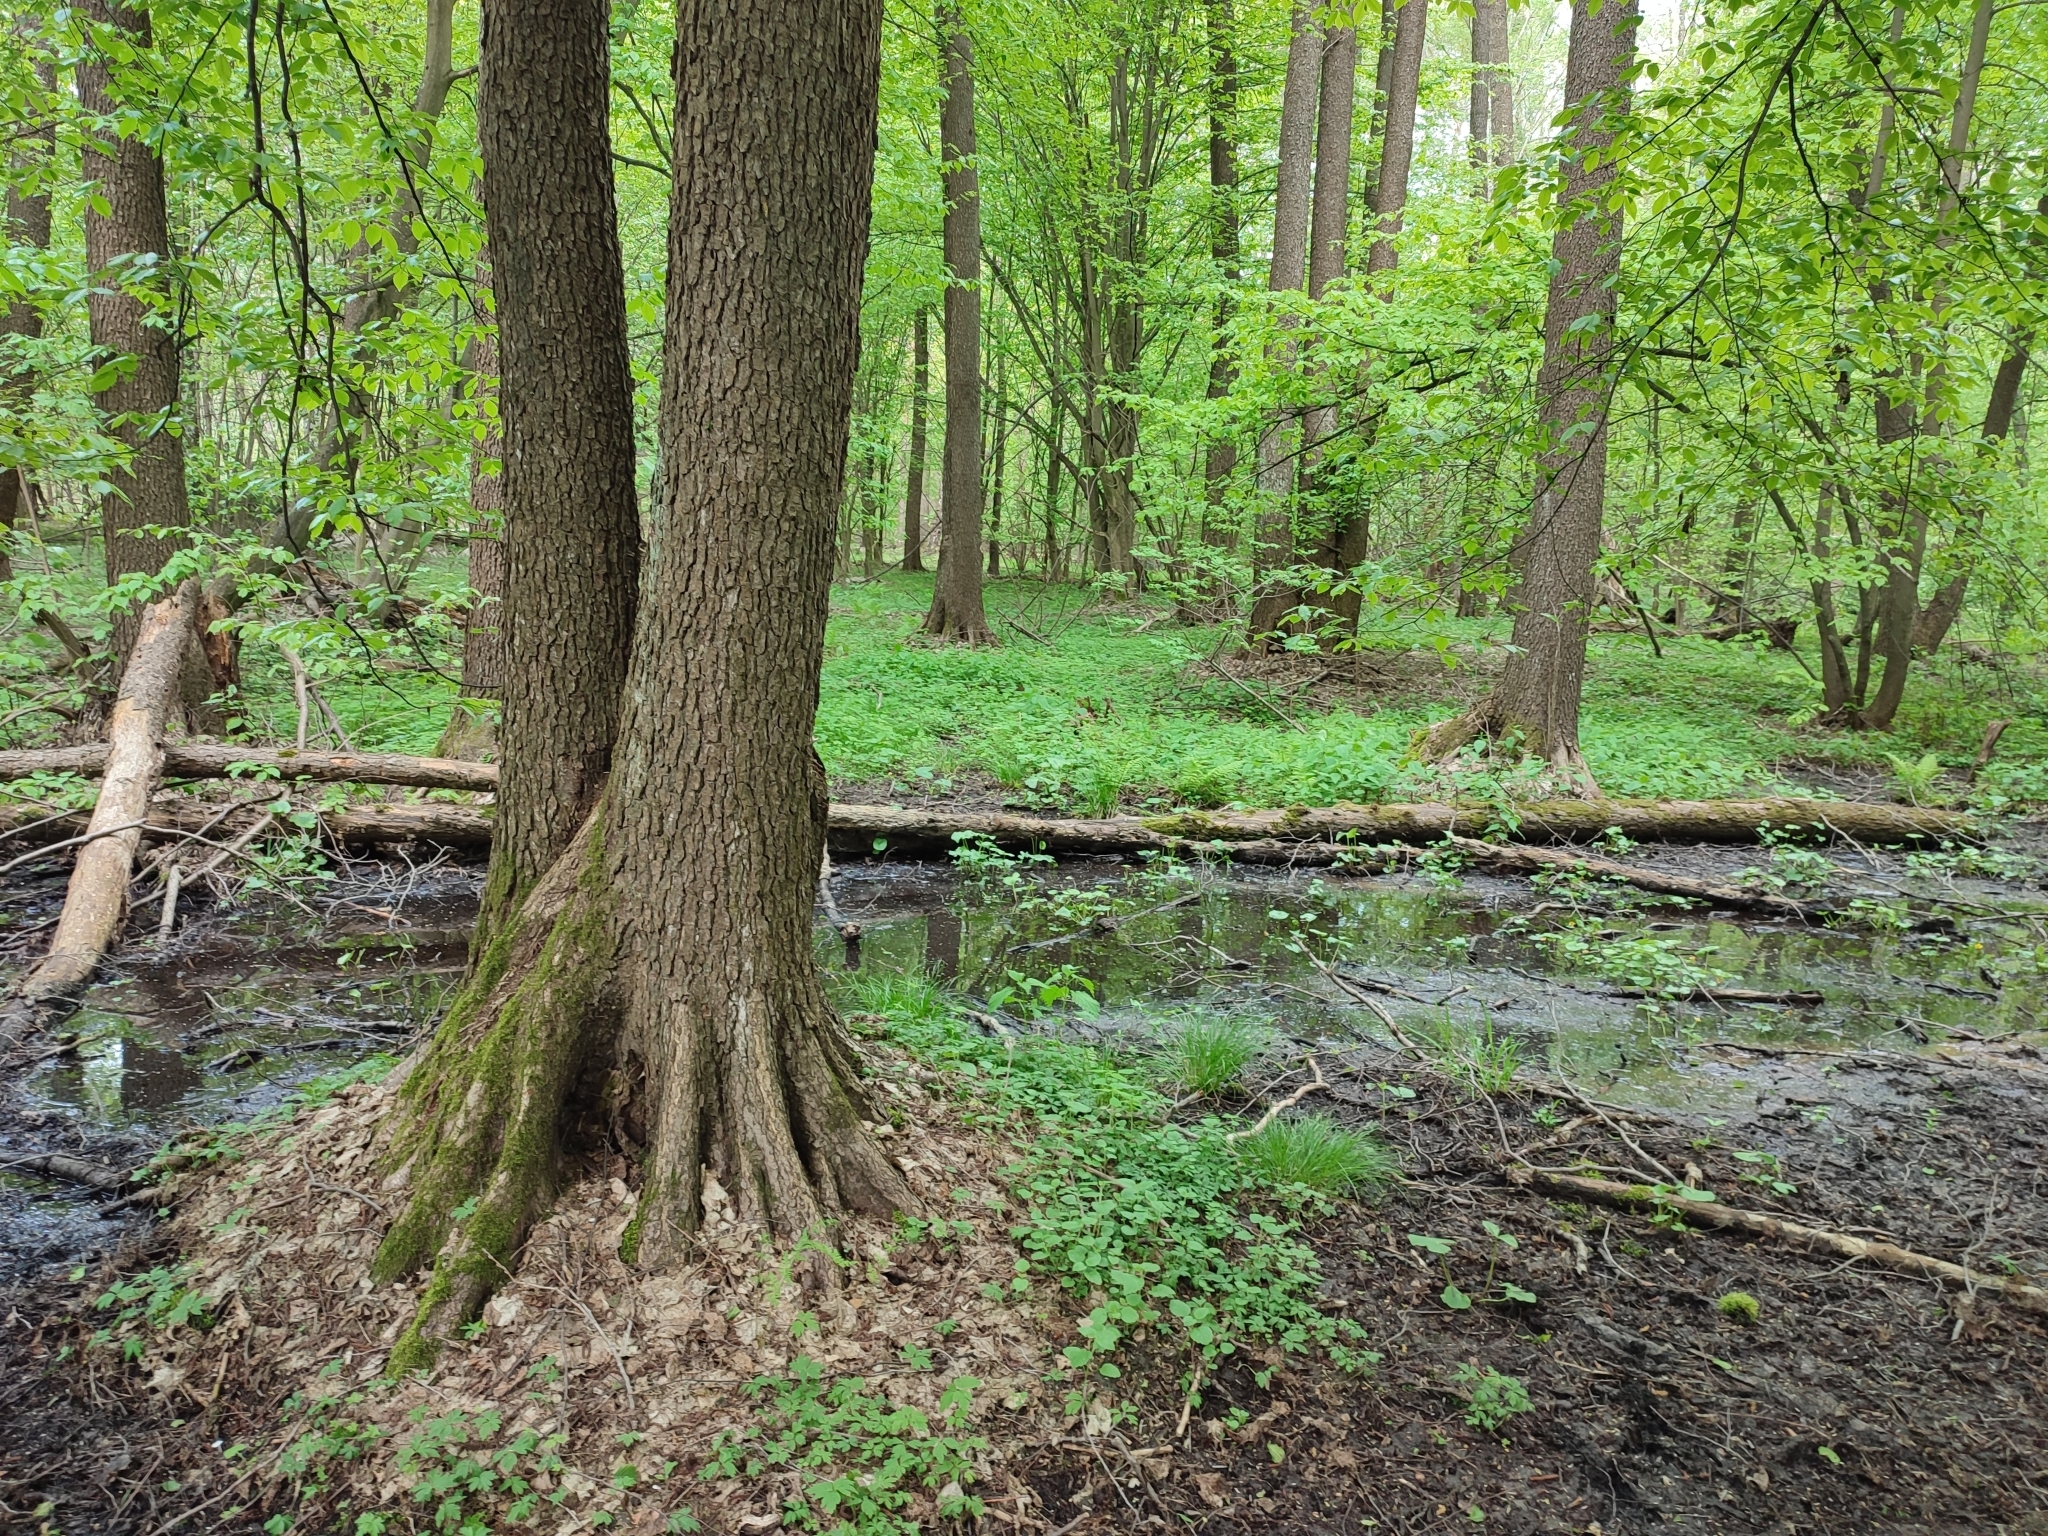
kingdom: Plantae
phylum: Tracheophyta
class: Magnoliopsida
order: Fagales
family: Betulaceae
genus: Alnus
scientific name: Alnus glutinosa
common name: Black alder
